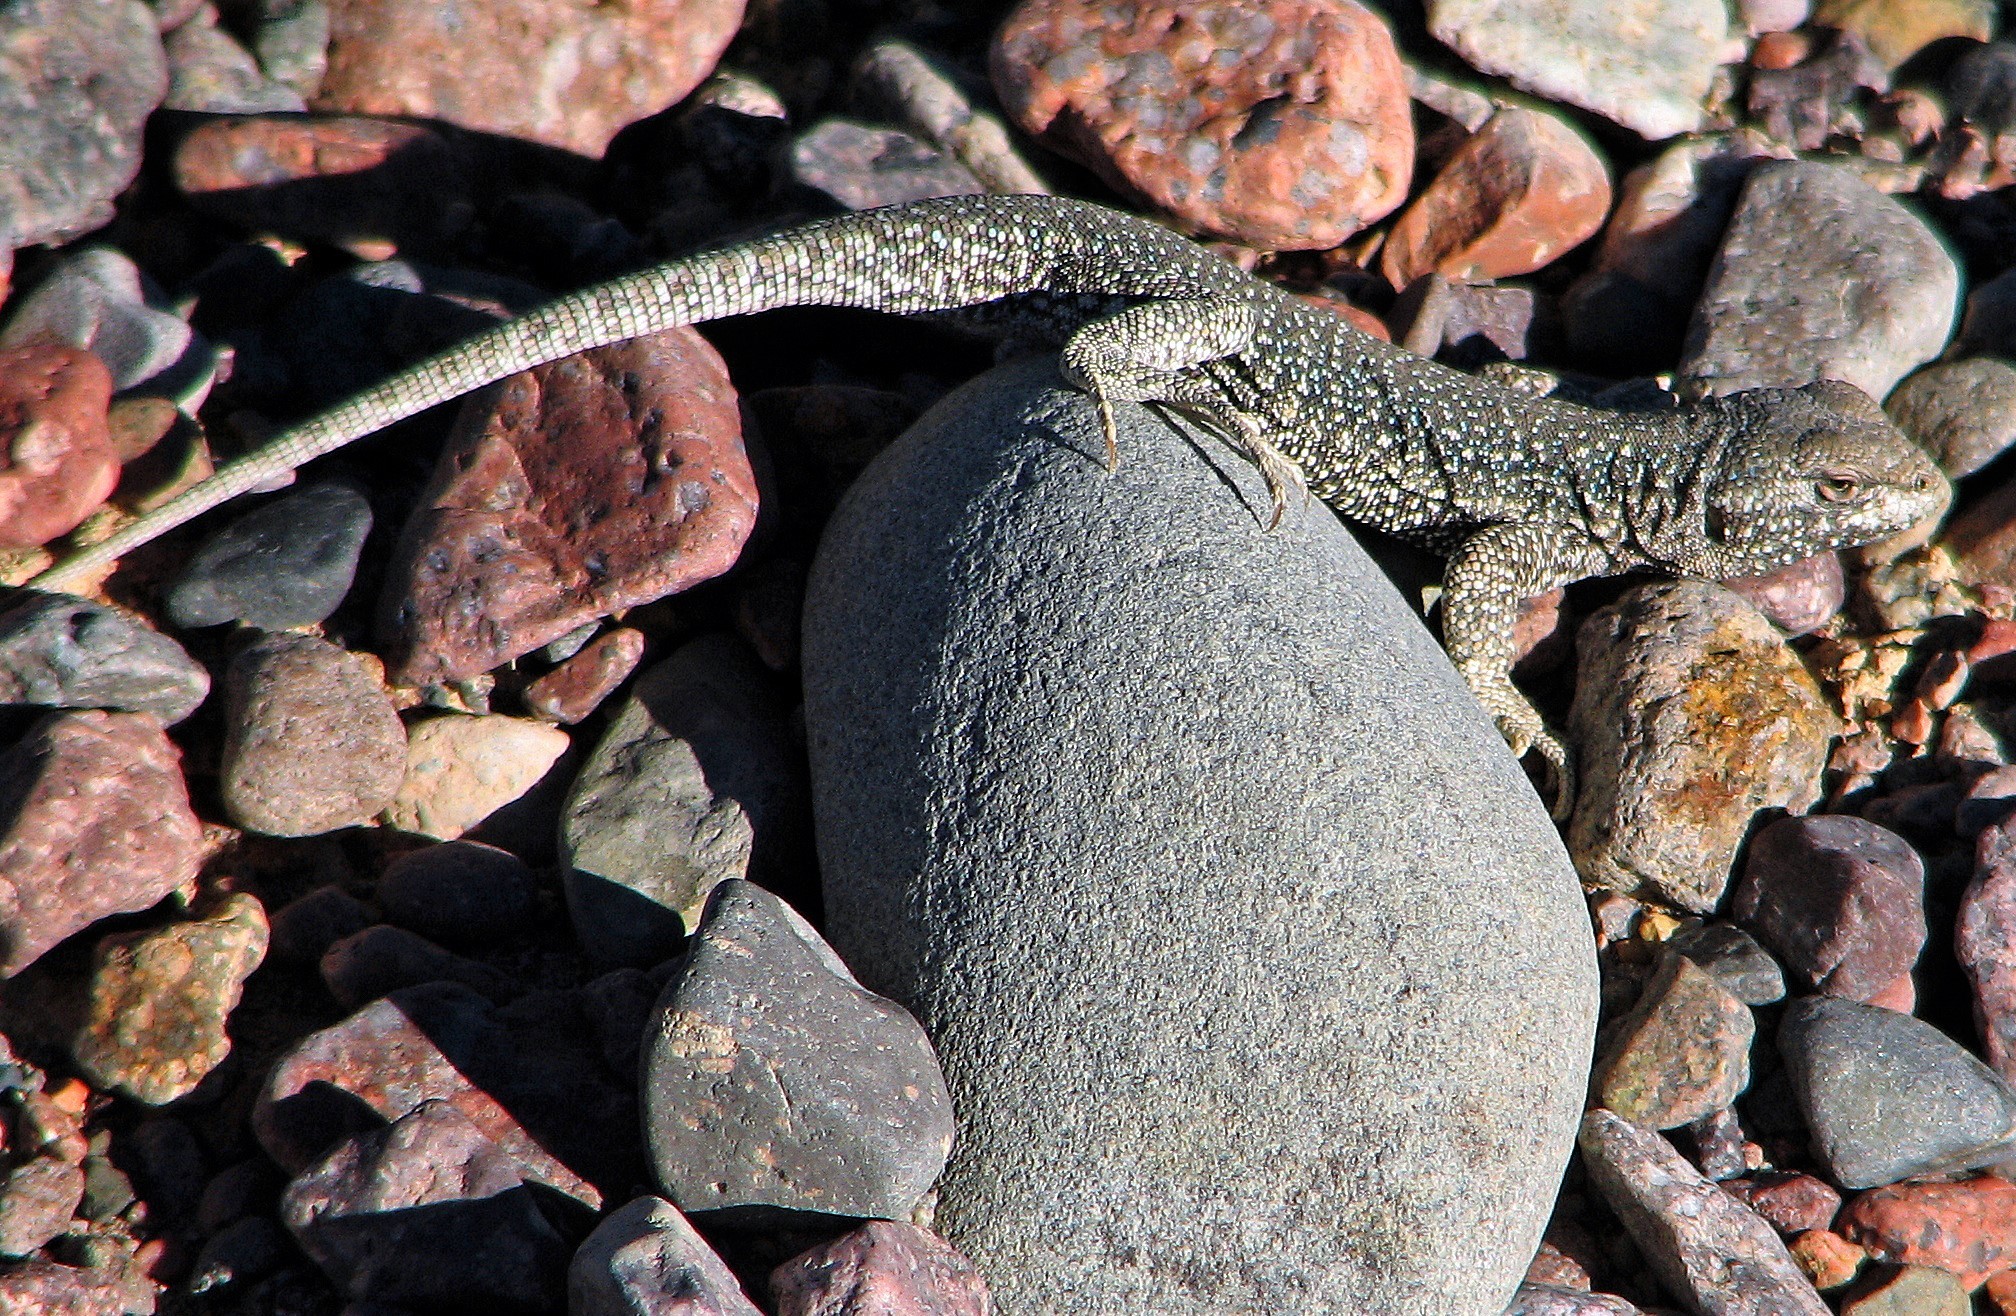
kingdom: Animalia
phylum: Chordata
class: Squamata
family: Liolaemidae
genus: Liolaemus
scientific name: Liolaemus gracielae
